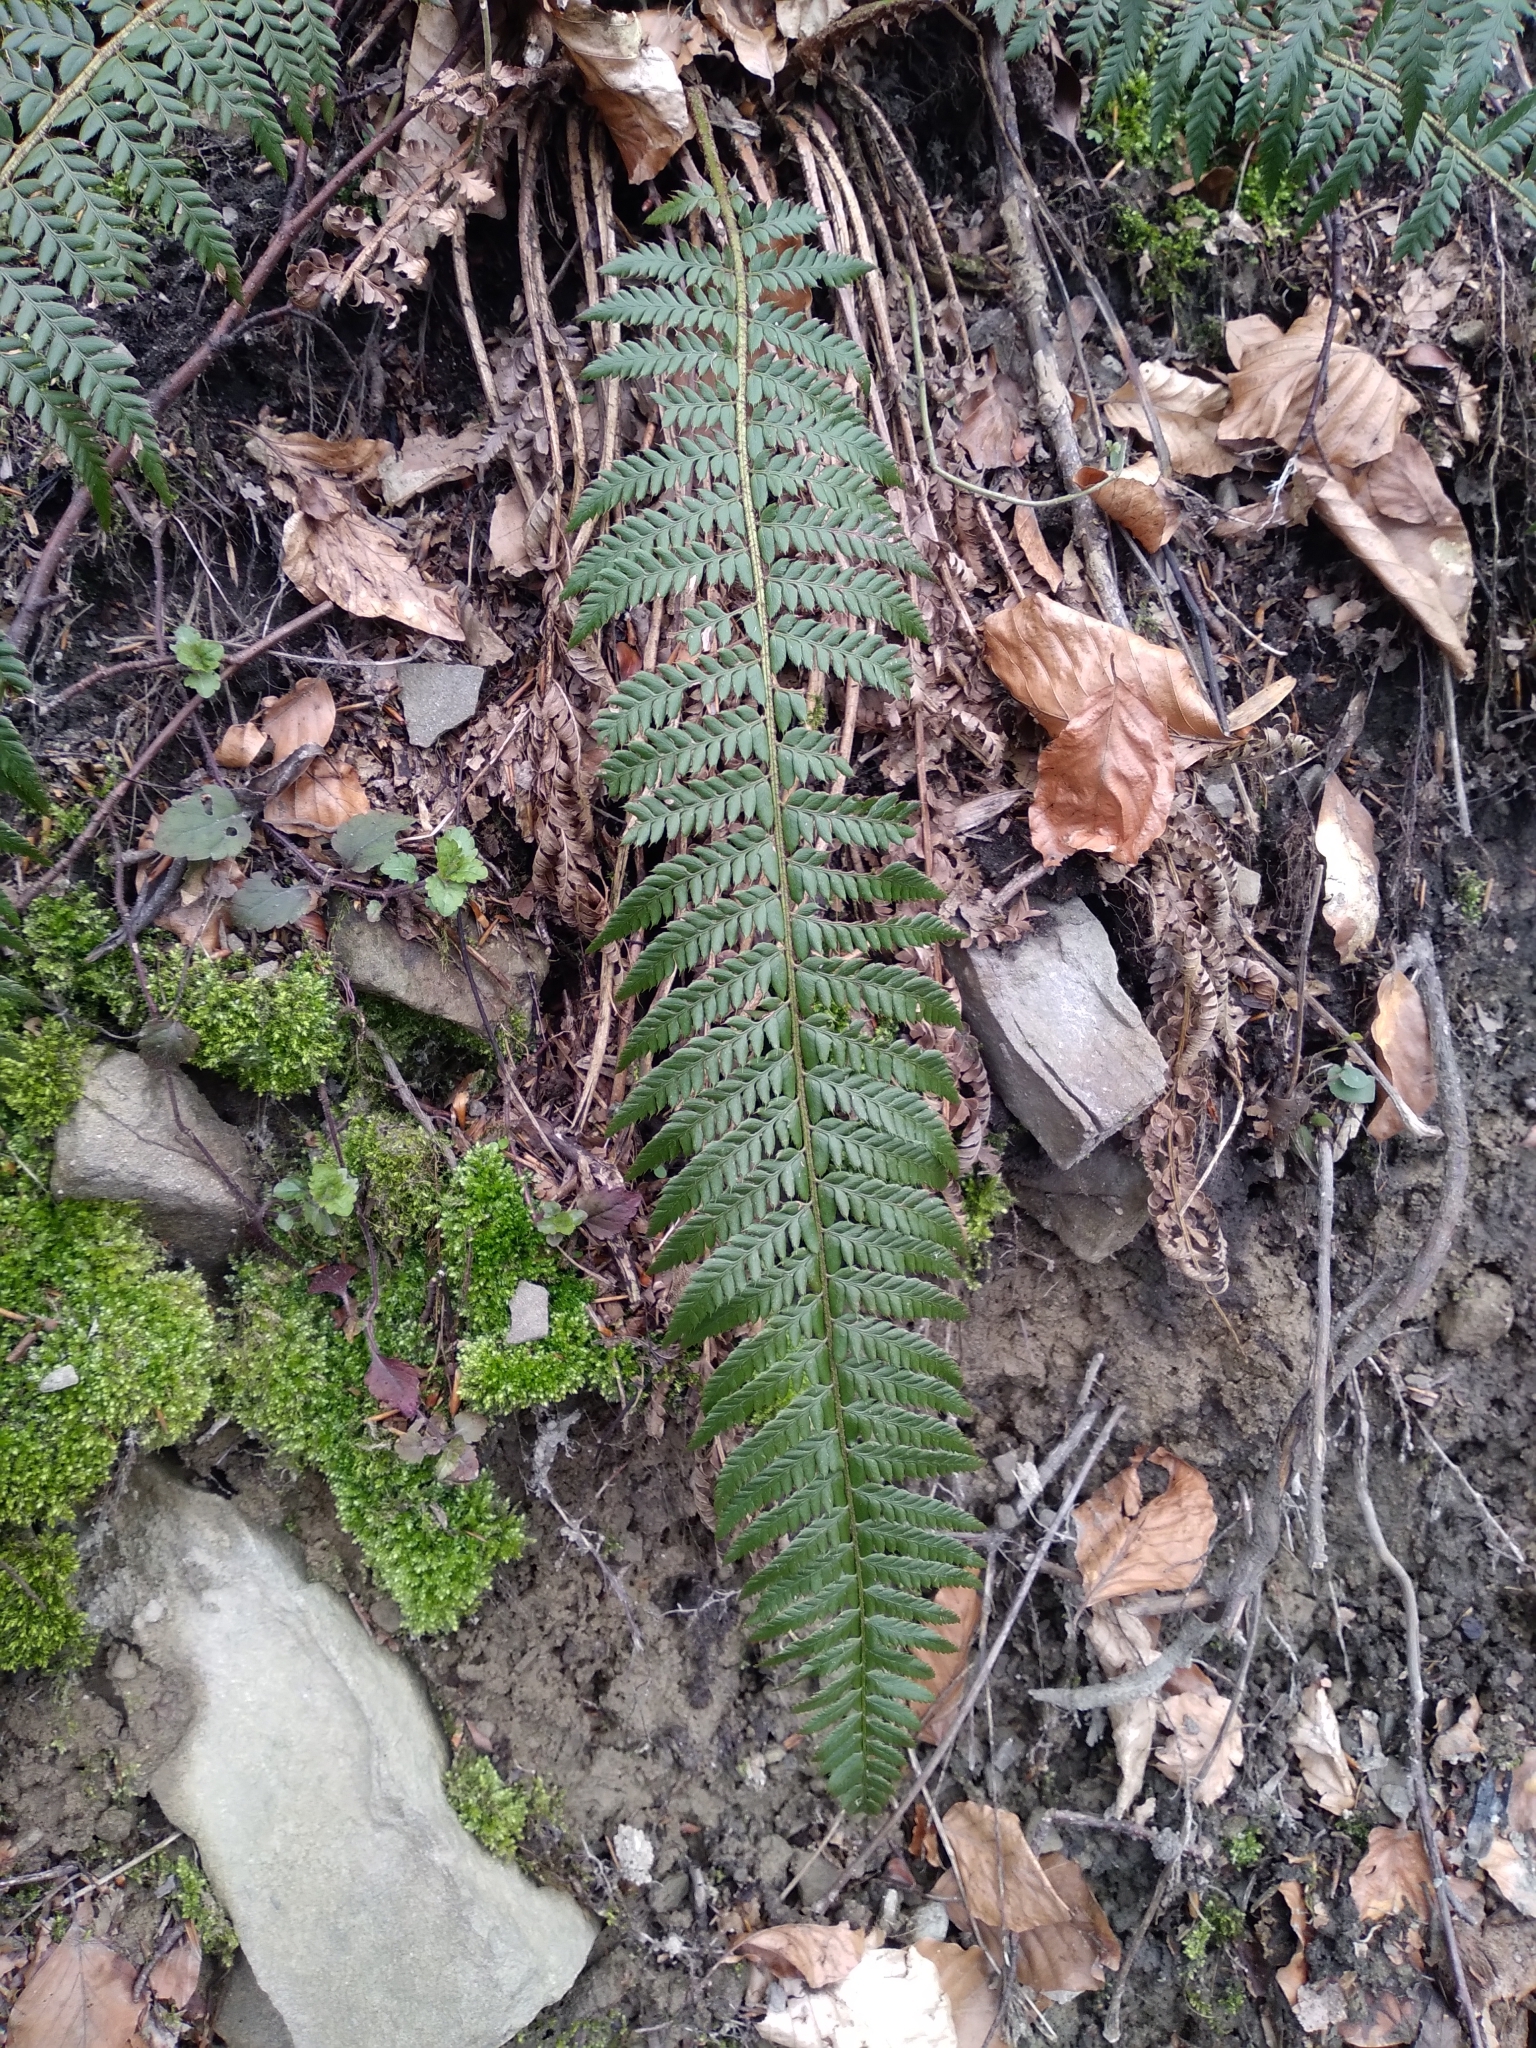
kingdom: Plantae
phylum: Tracheophyta
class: Polypodiopsida
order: Polypodiales
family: Dryopteridaceae
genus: Polystichum
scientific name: Polystichum aculeatum
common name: Hard shield-fern
